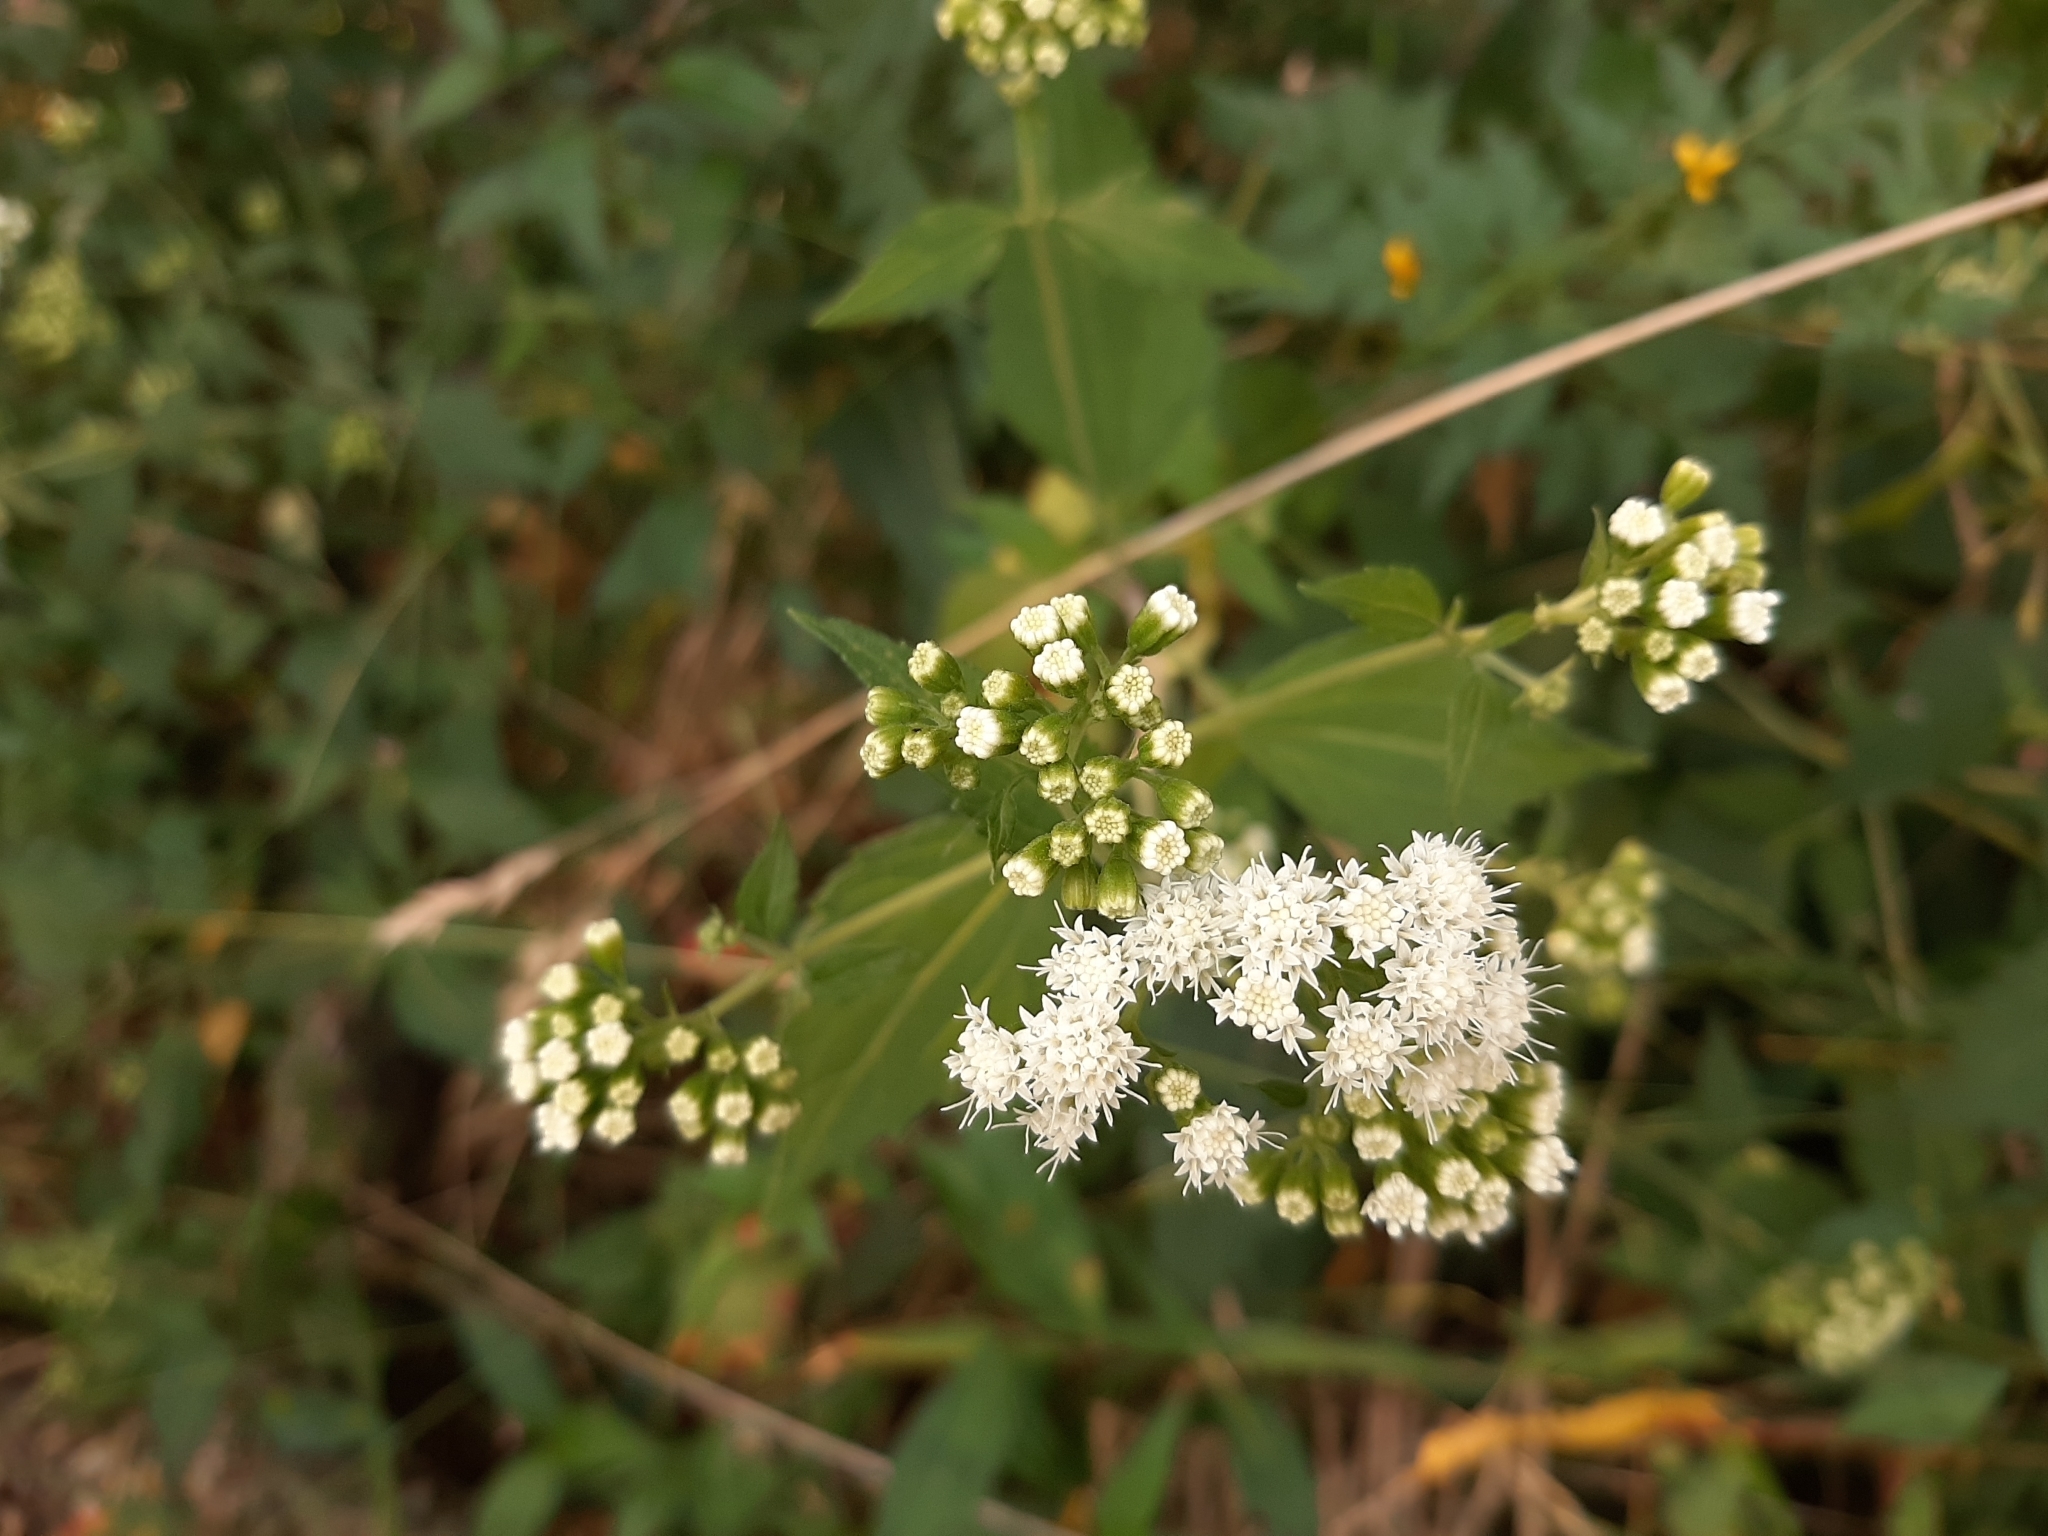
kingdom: Plantae
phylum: Tracheophyta
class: Magnoliopsida
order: Asterales
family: Asteraceae
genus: Ageratina
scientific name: Ageratina altissima
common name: White snakeroot
